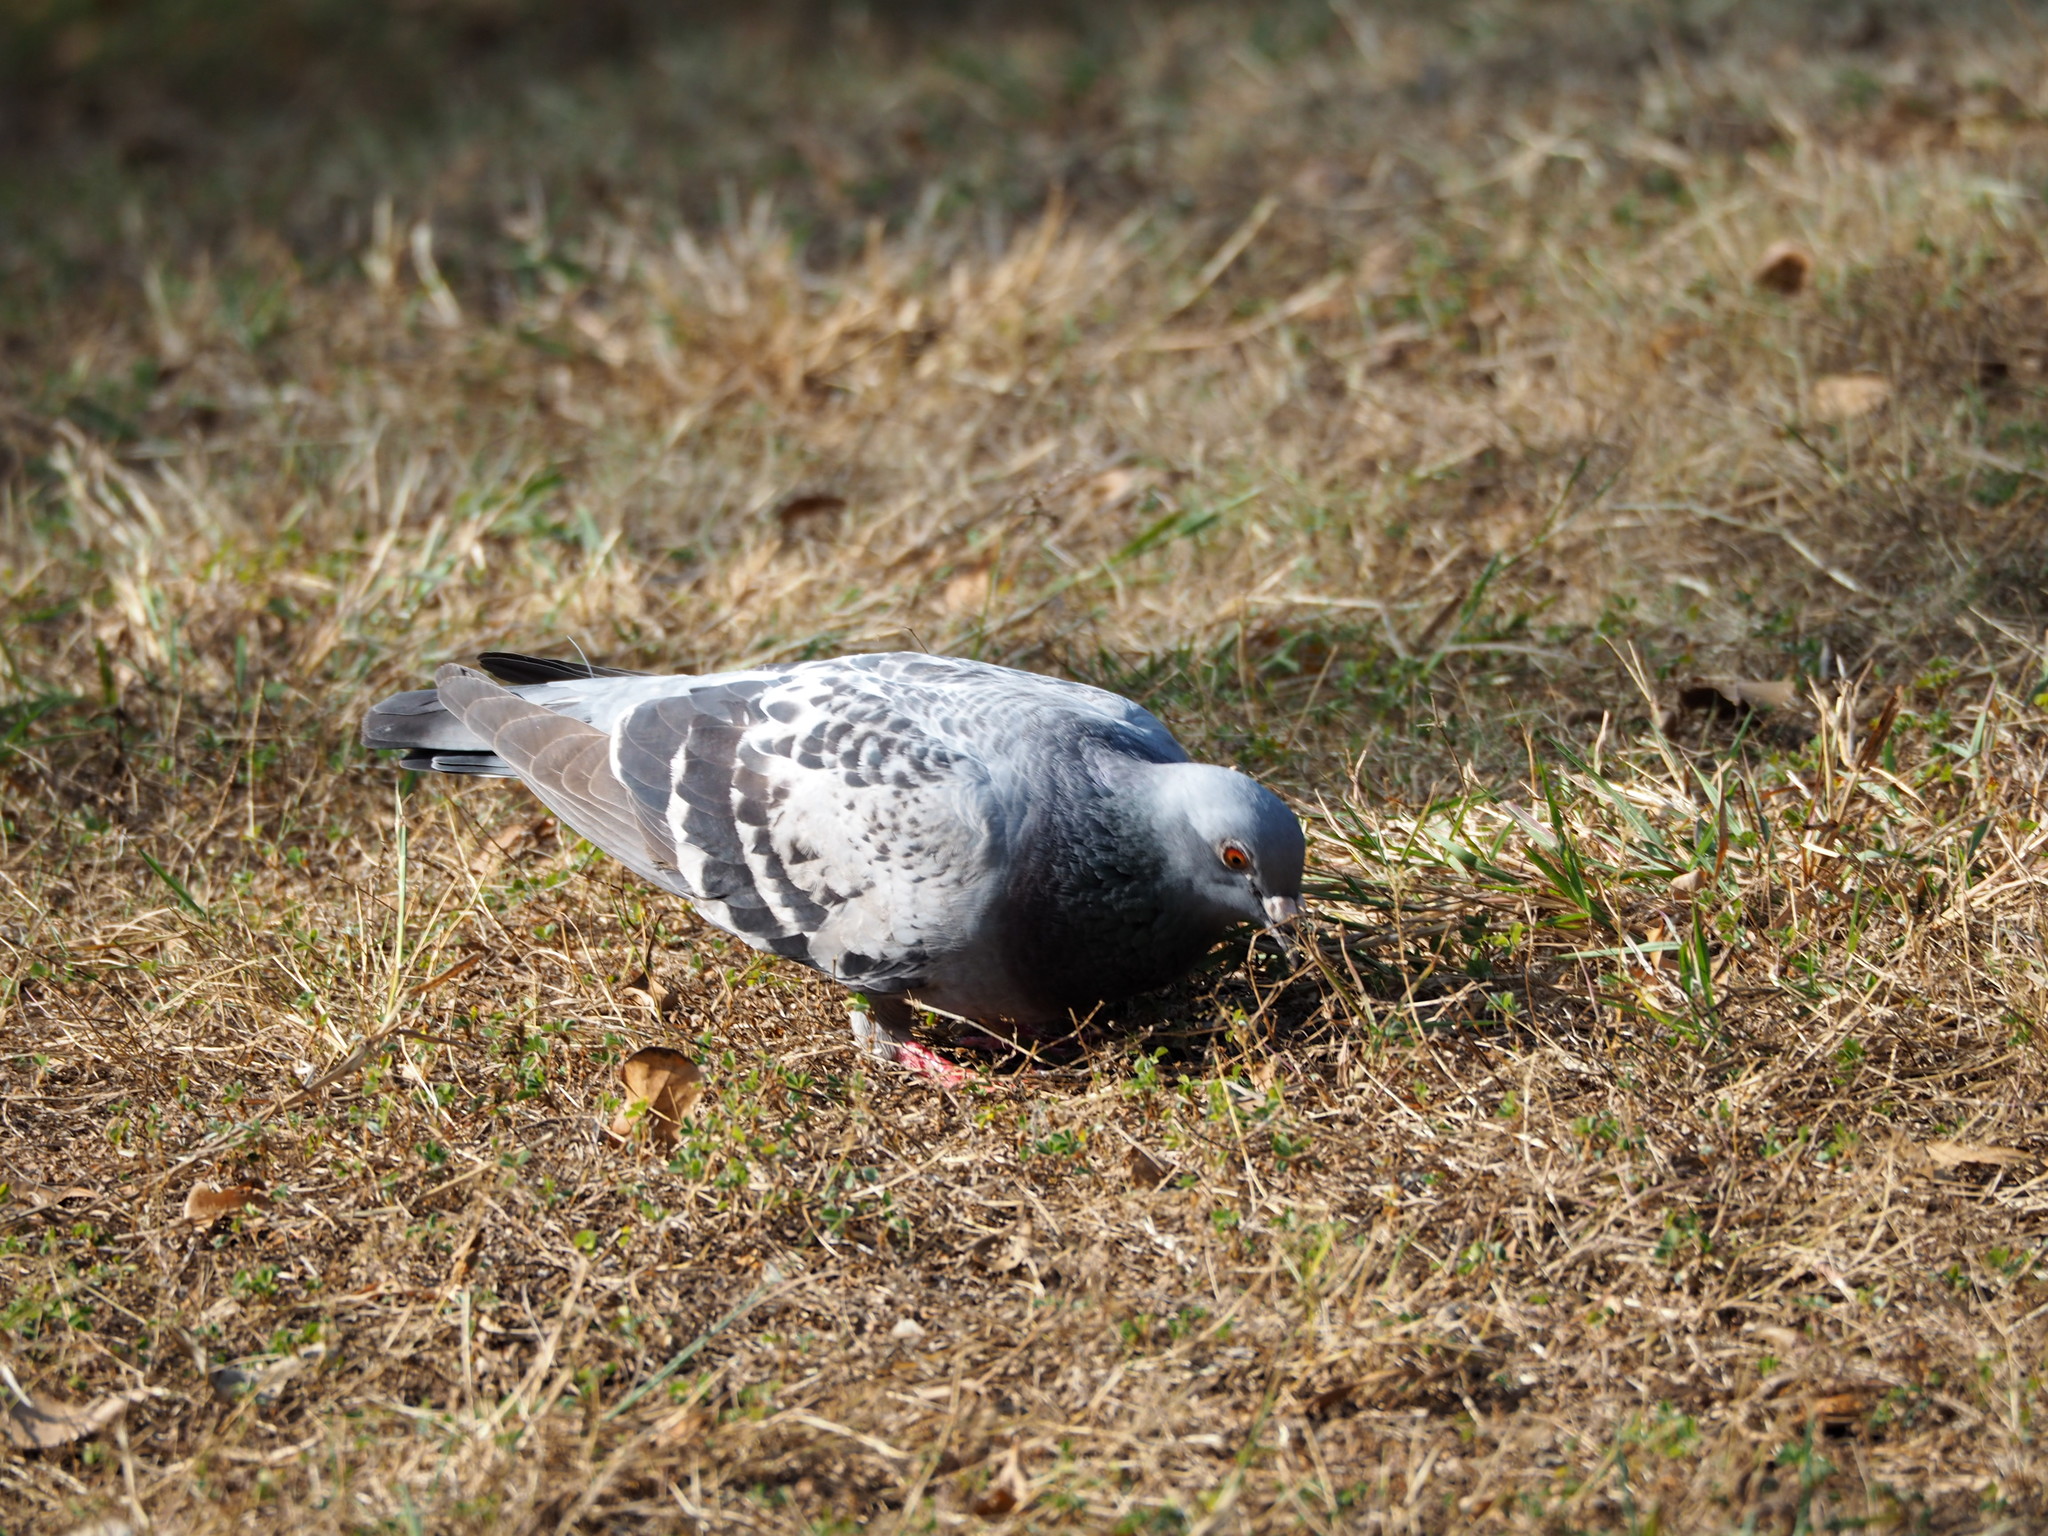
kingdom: Animalia
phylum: Chordata
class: Aves
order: Columbiformes
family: Columbidae
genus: Columba
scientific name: Columba livia
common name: Rock pigeon
